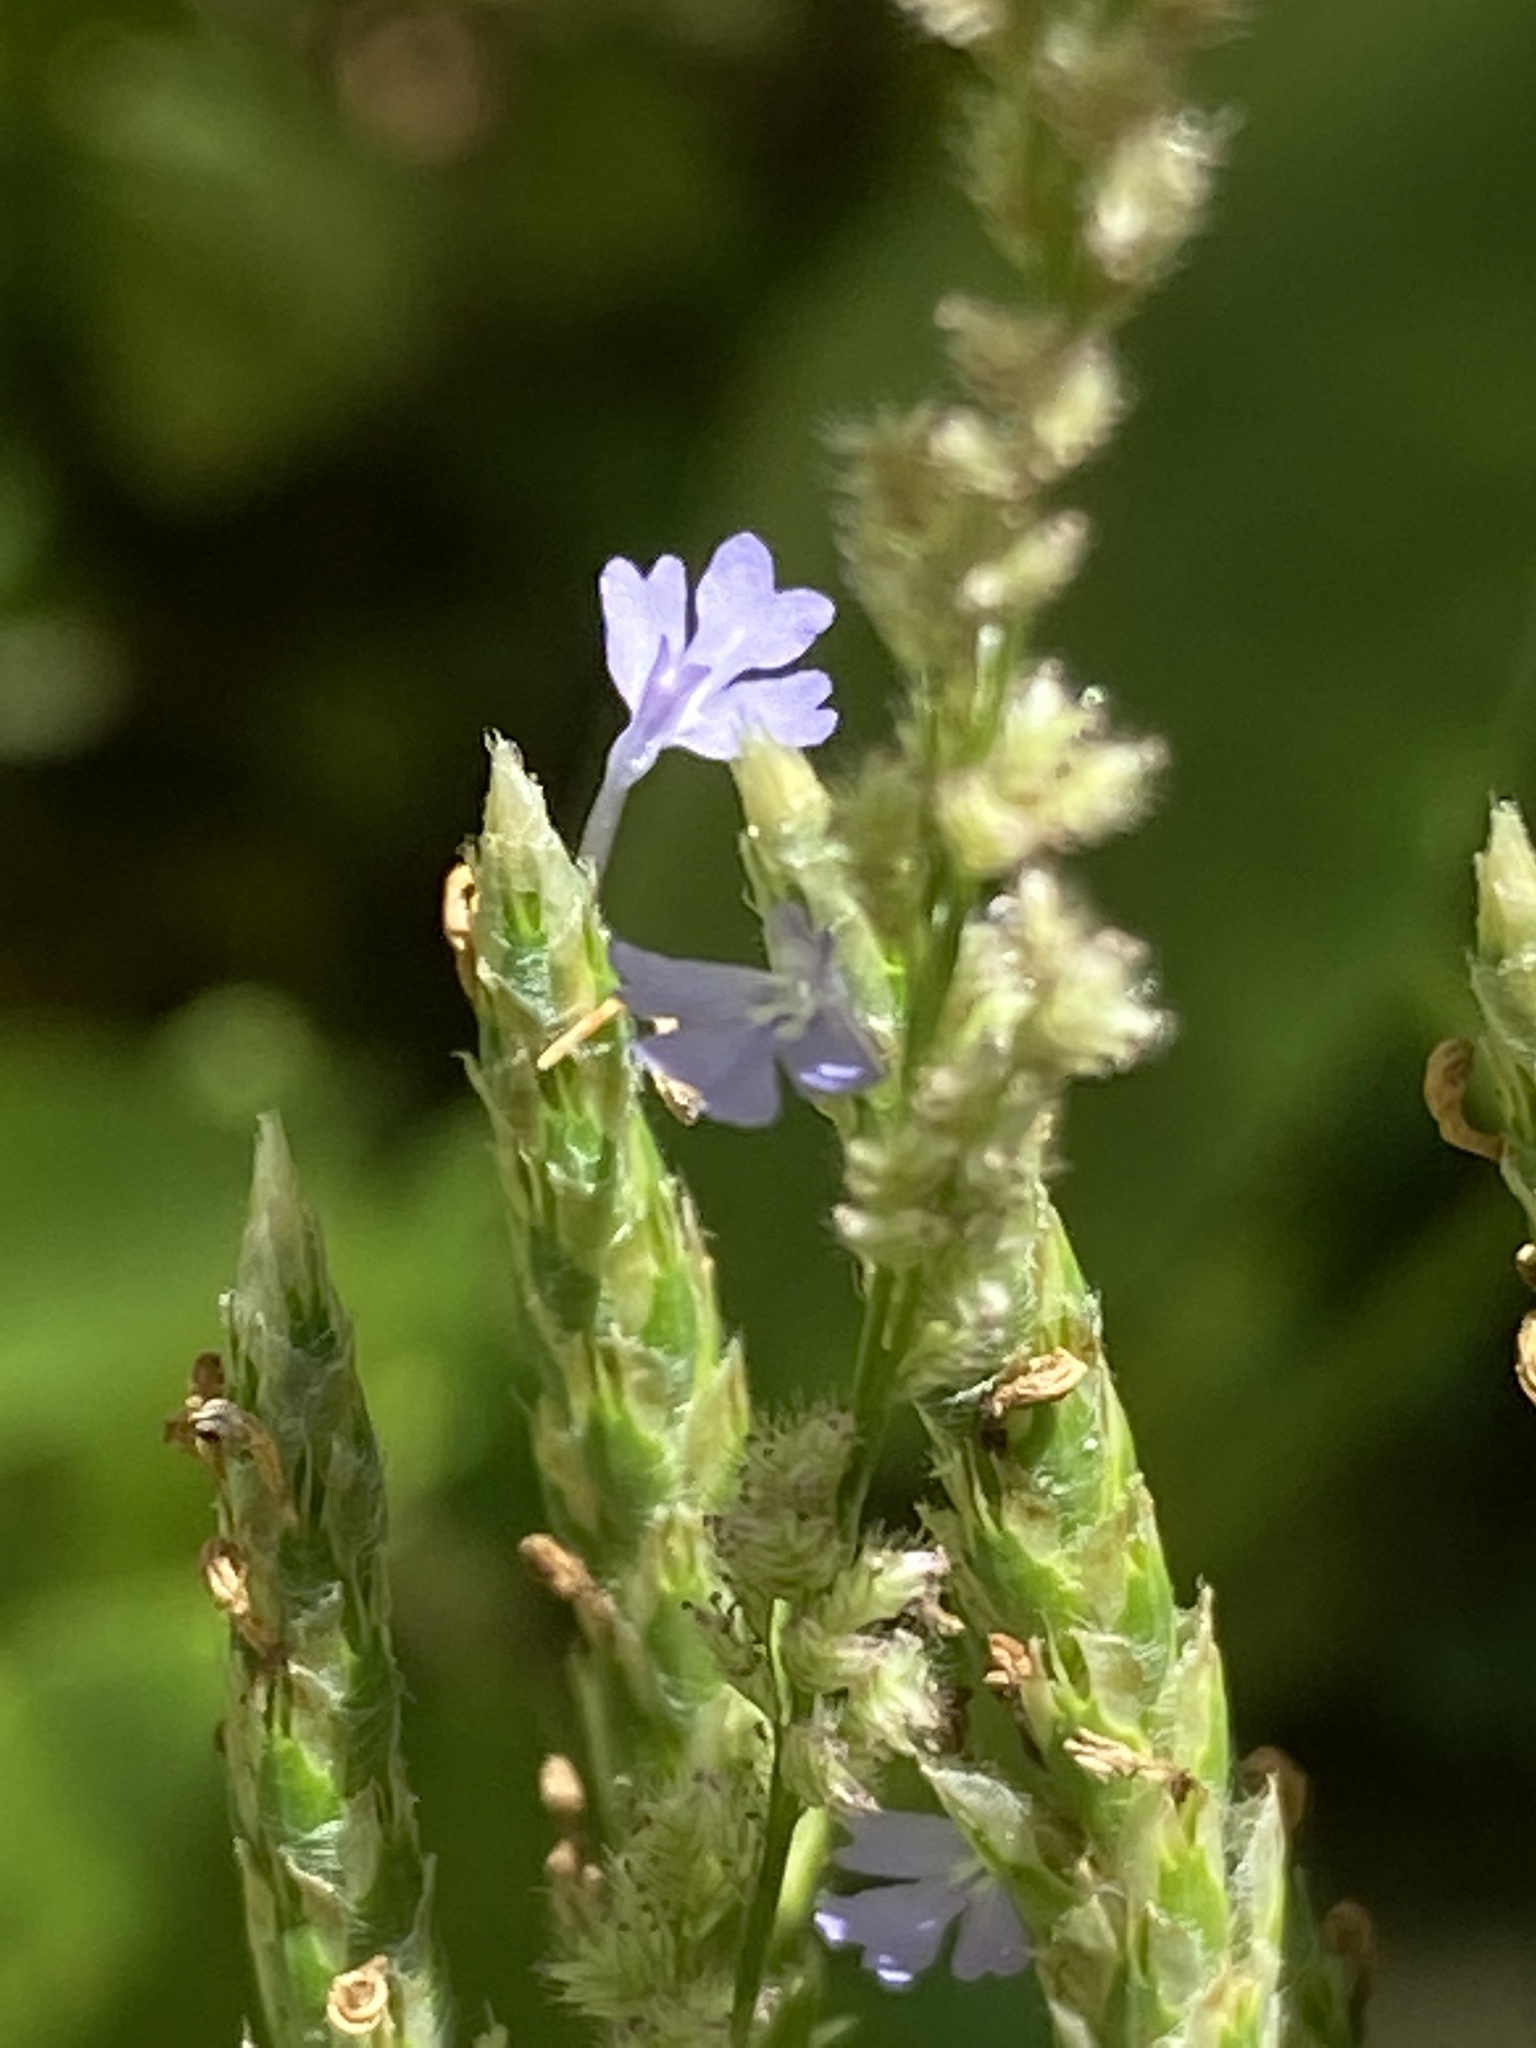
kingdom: Plantae
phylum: Tracheophyta
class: Magnoliopsida
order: Lamiales
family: Acanthaceae
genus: Elytraria
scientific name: Elytraria imbricata
